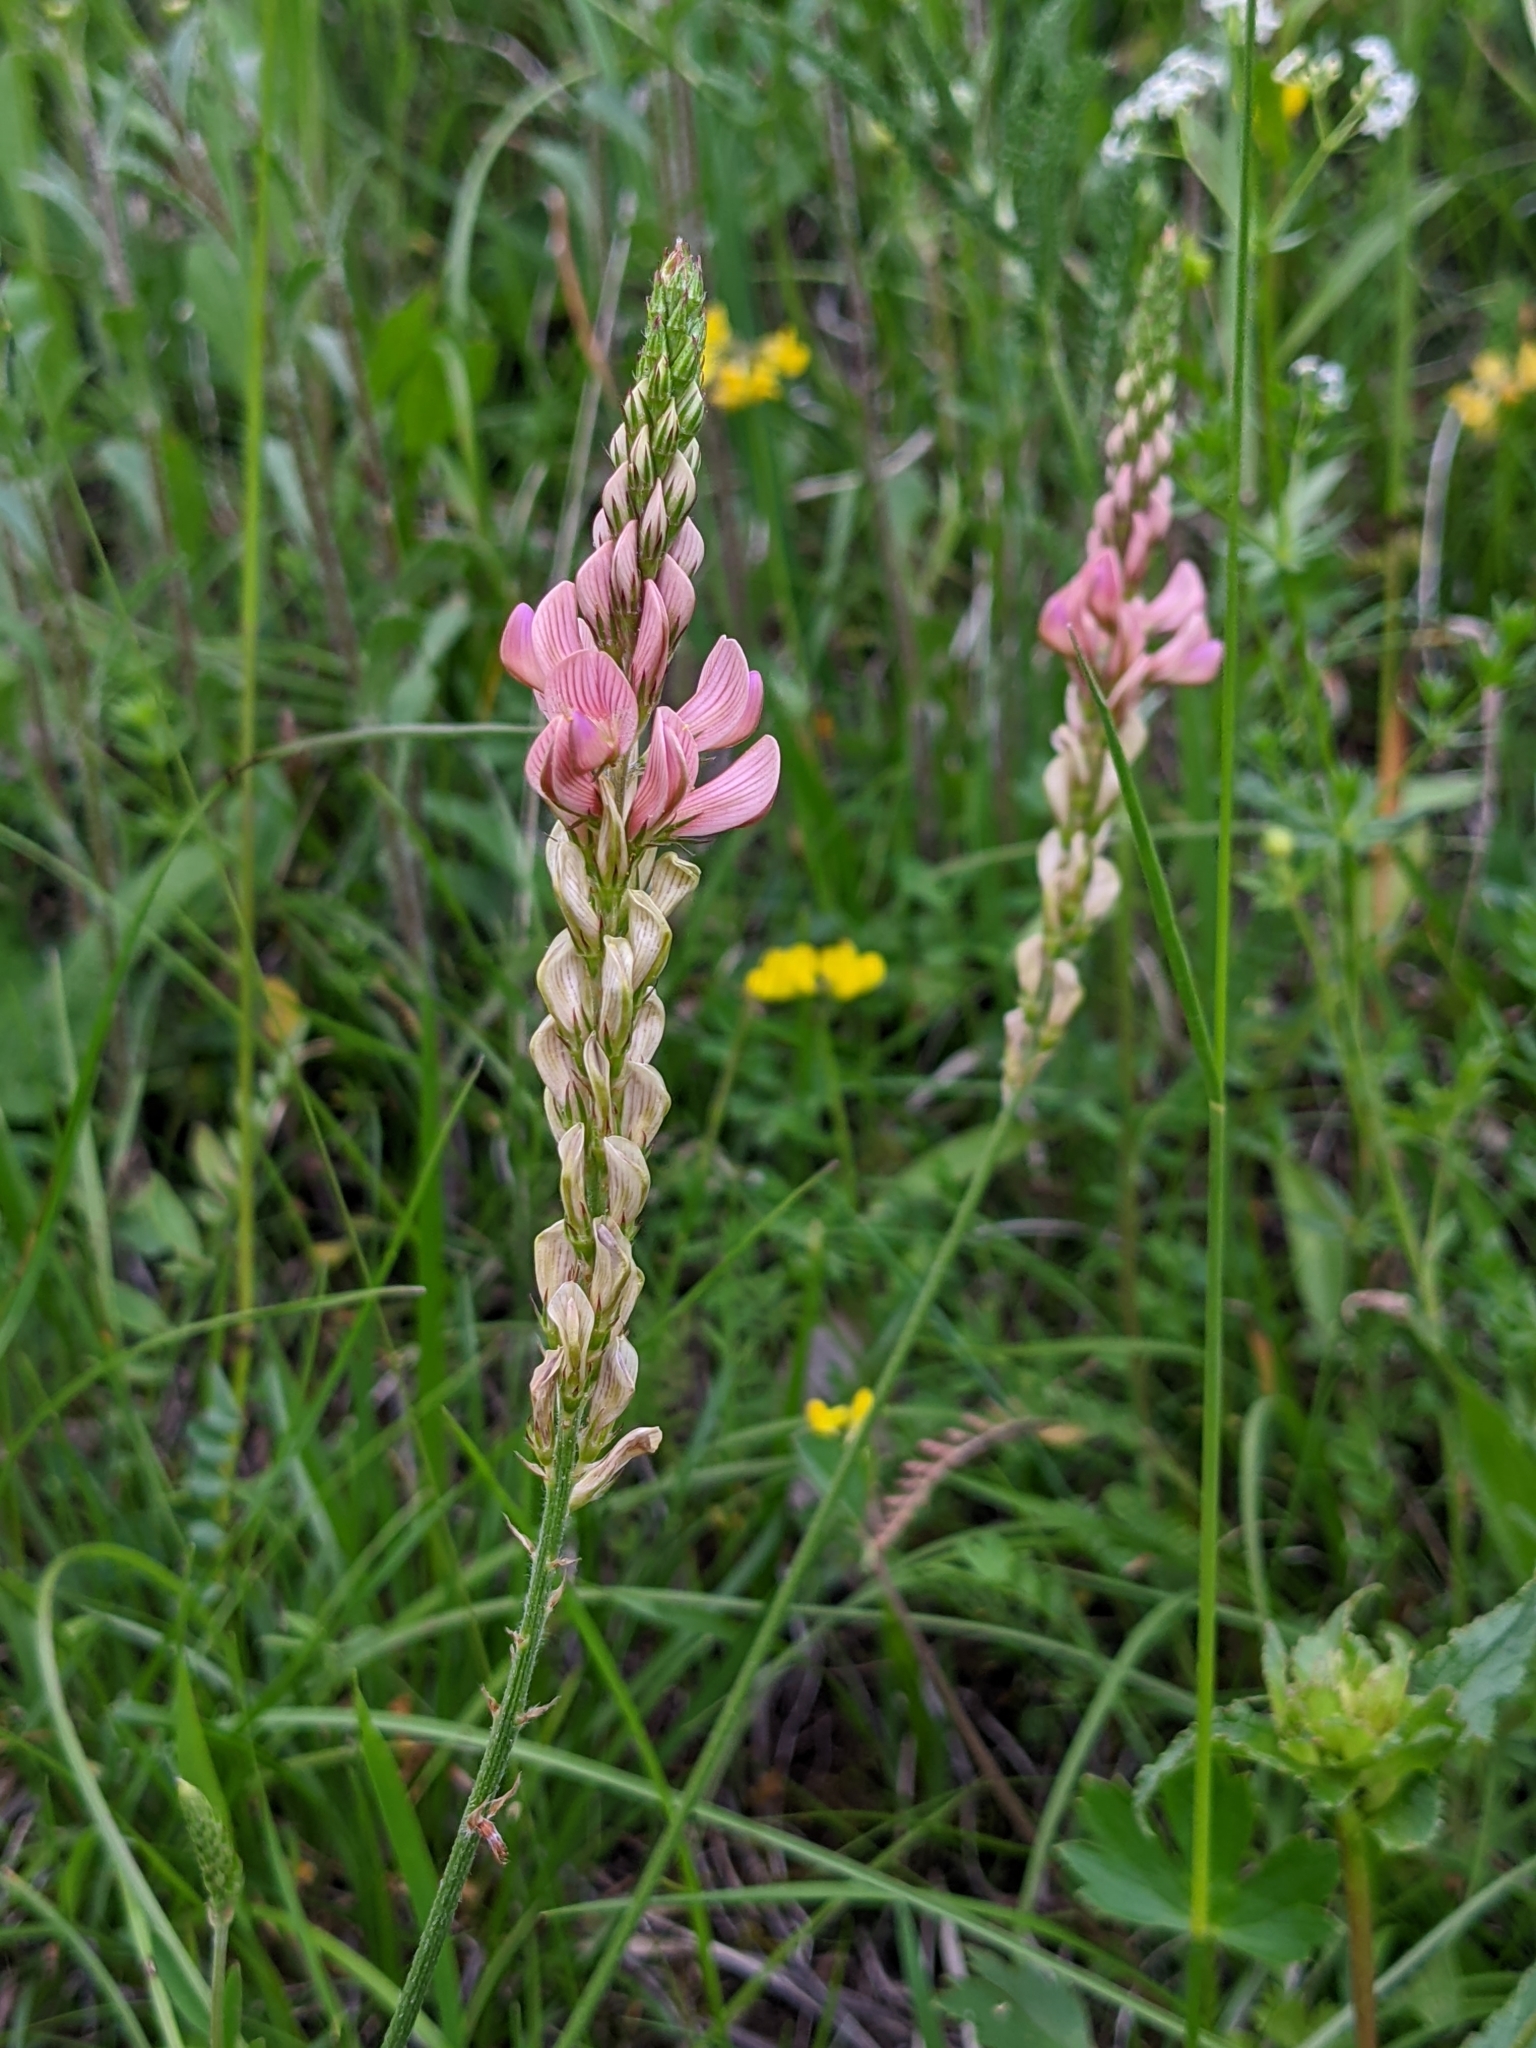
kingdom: Plantae
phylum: Tracheophyta
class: Magnoliopsida
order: Fabales
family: Fabaceae
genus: Onobrychis
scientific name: Onobrychis viciifolia
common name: Sainfoin
